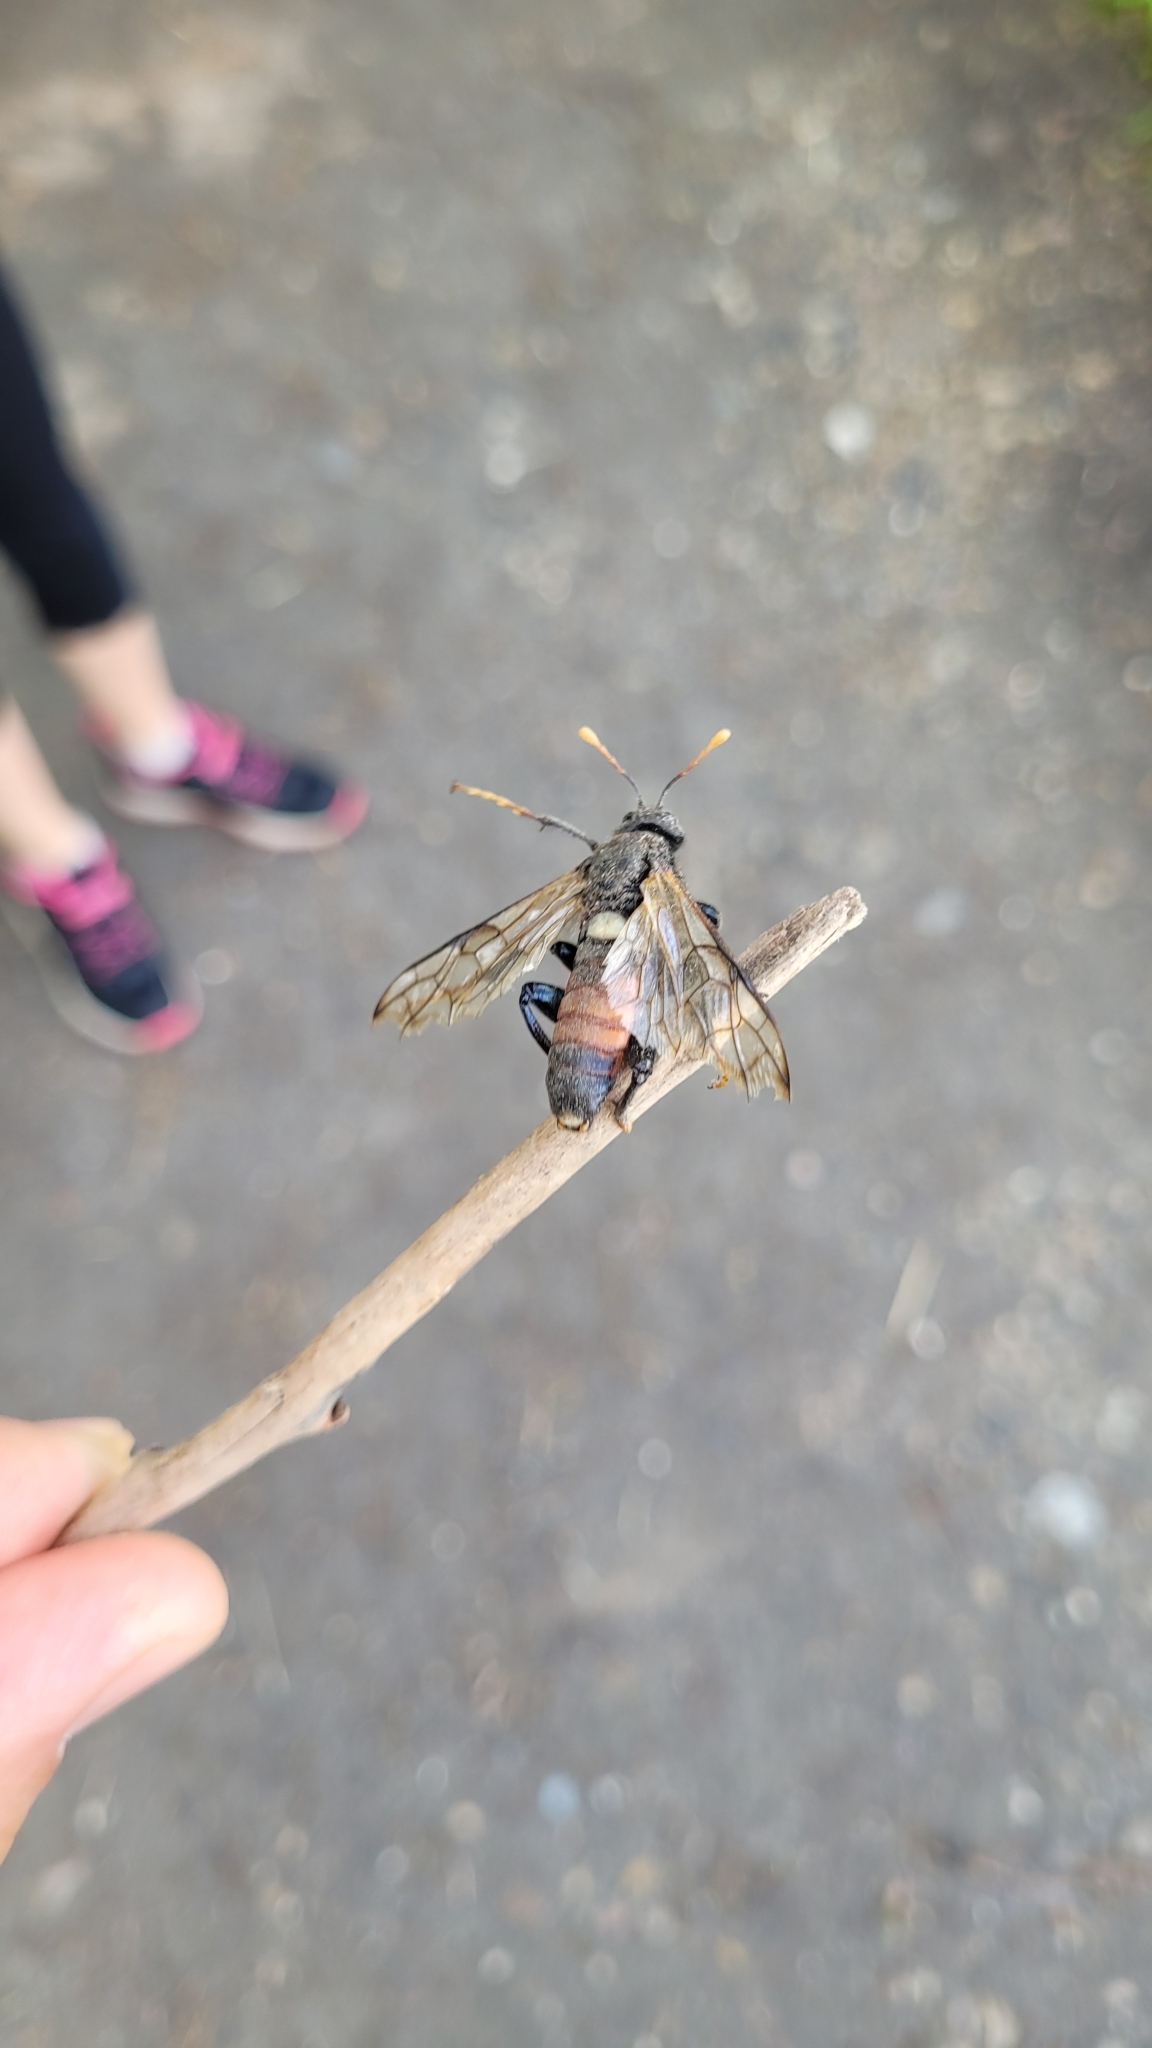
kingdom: Animalia
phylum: Arthropoda
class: Insecta
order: Hymenoptera
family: Cimbicidae
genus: Cimbex
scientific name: Cimbex femoratus
